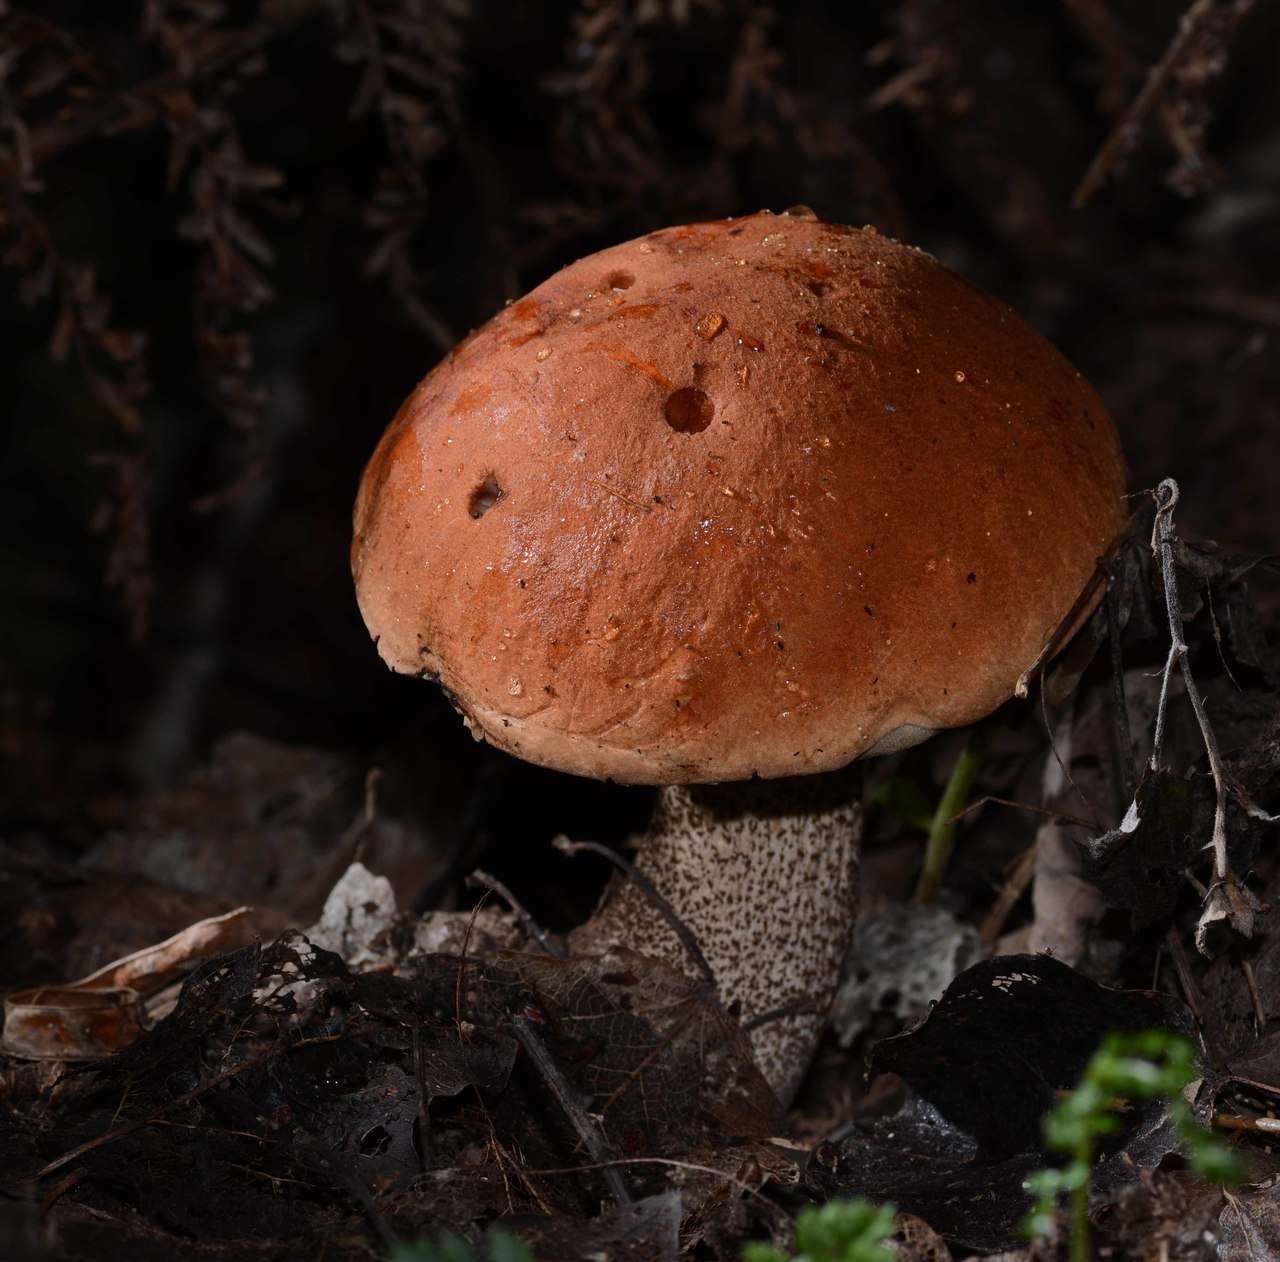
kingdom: Fungi
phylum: Basidiomycota
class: Agaricomycetes
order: Boletales
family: Boletaceae
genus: Leccinum
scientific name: Leccinum aurantiacum
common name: Orange bolete
